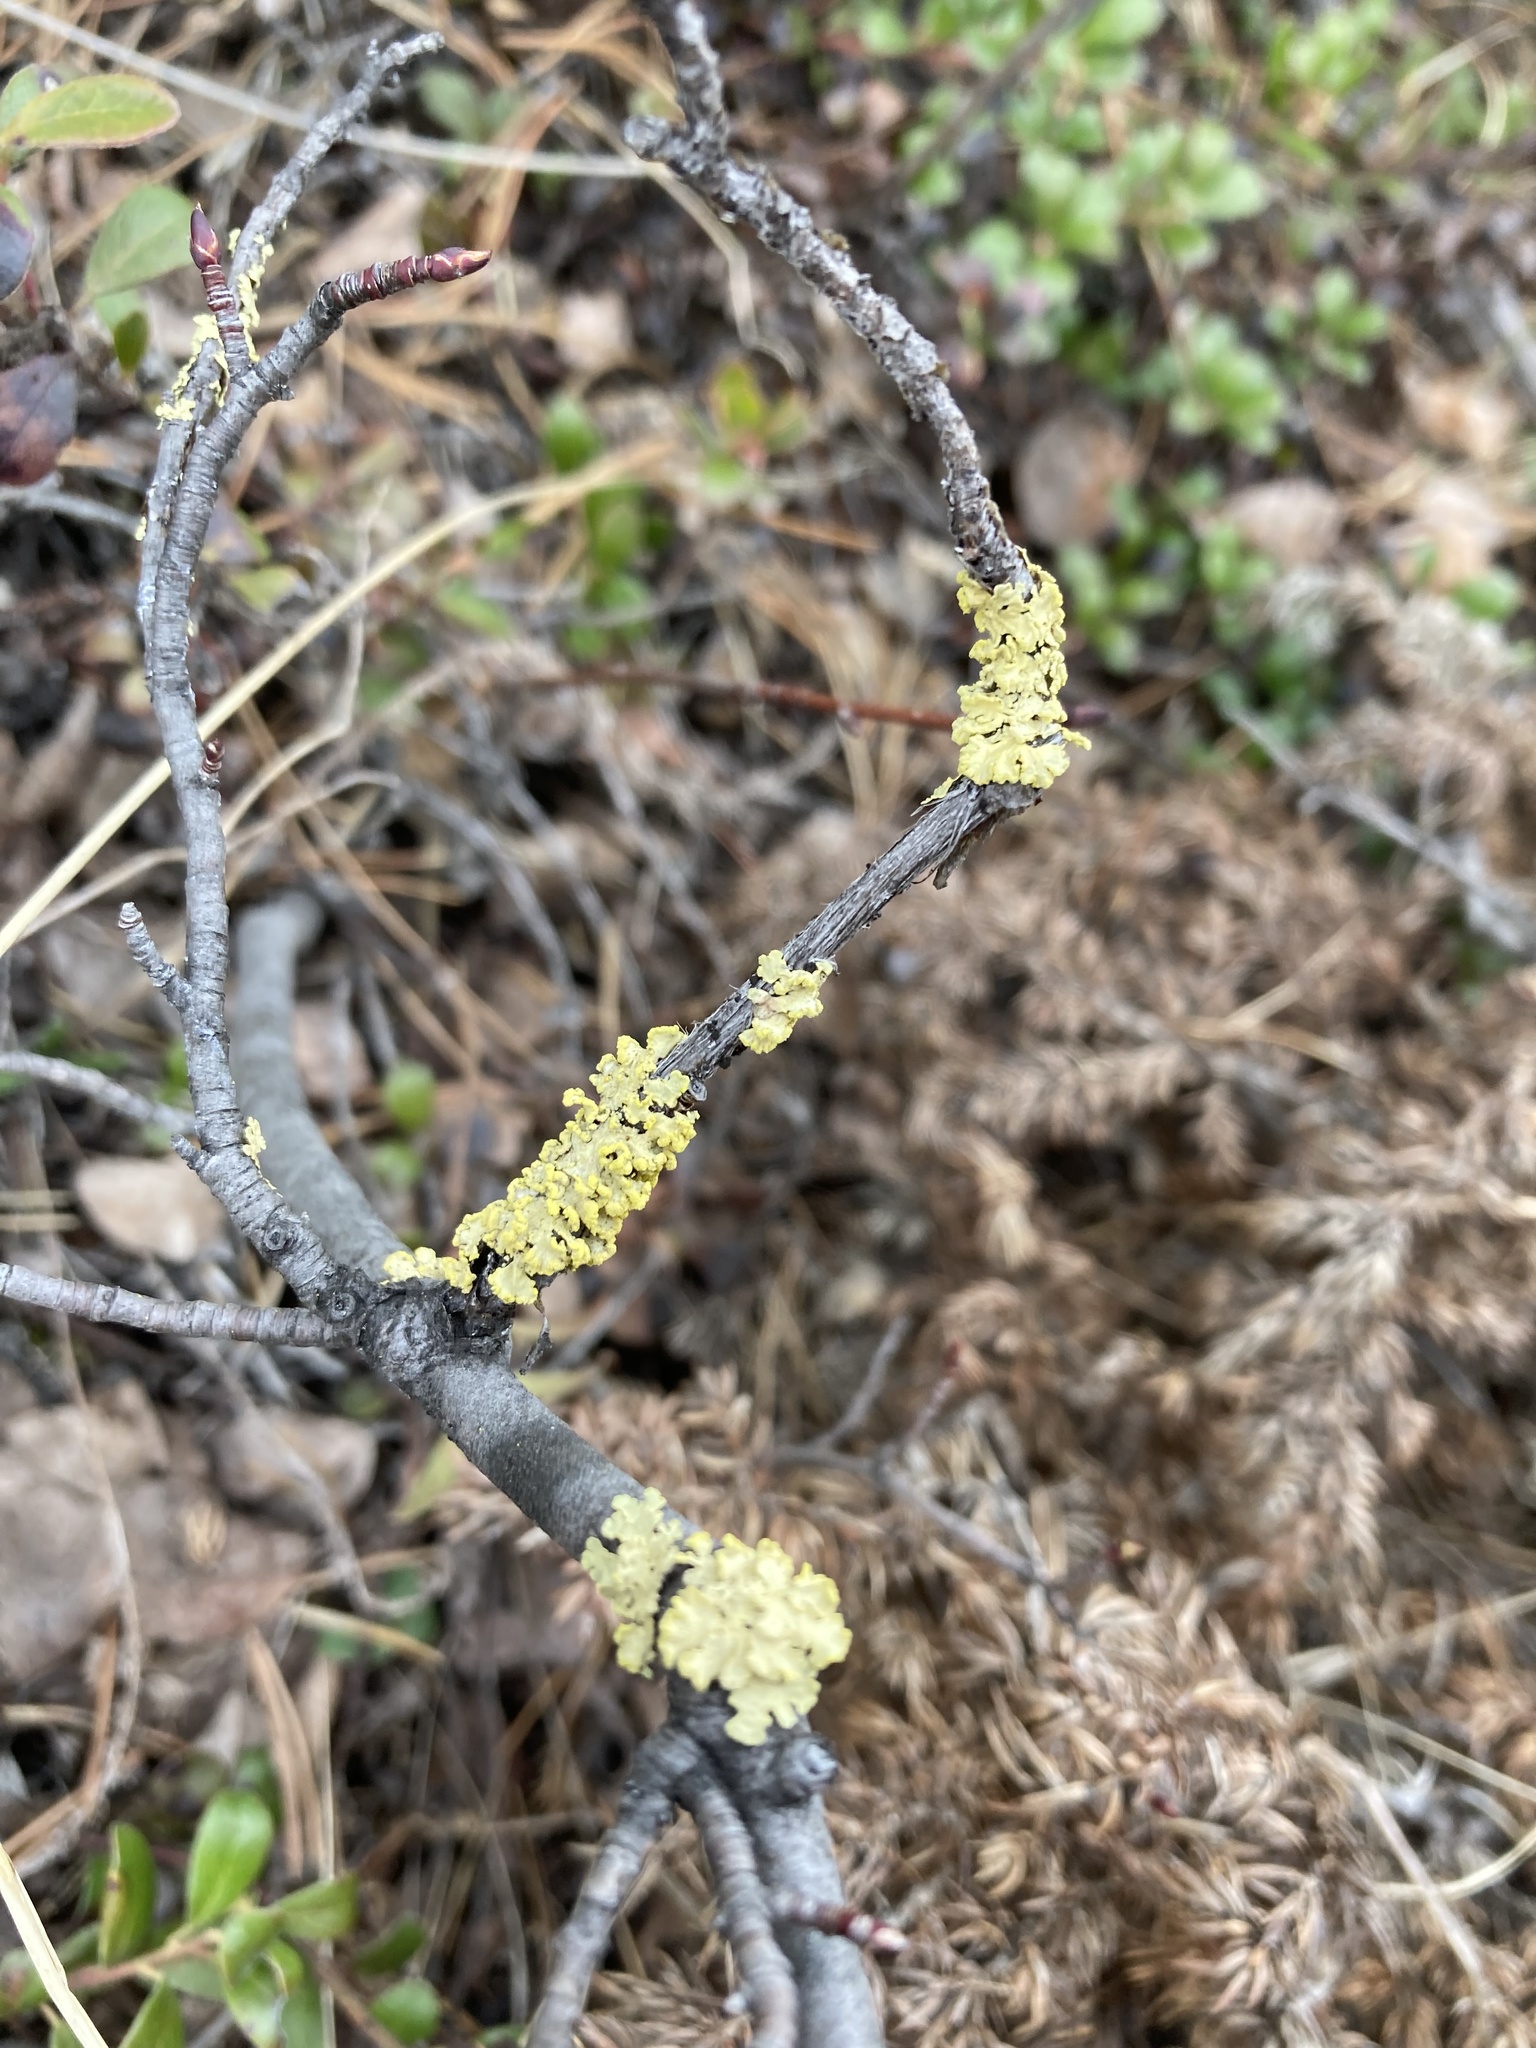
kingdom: Fungi
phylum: Ascomycota
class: Lecanoromycetes
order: Lecanorales
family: Parmeliaceae
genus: Vulpicida
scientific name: Vulpicida pinastri
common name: Powdered sunshine lichen
